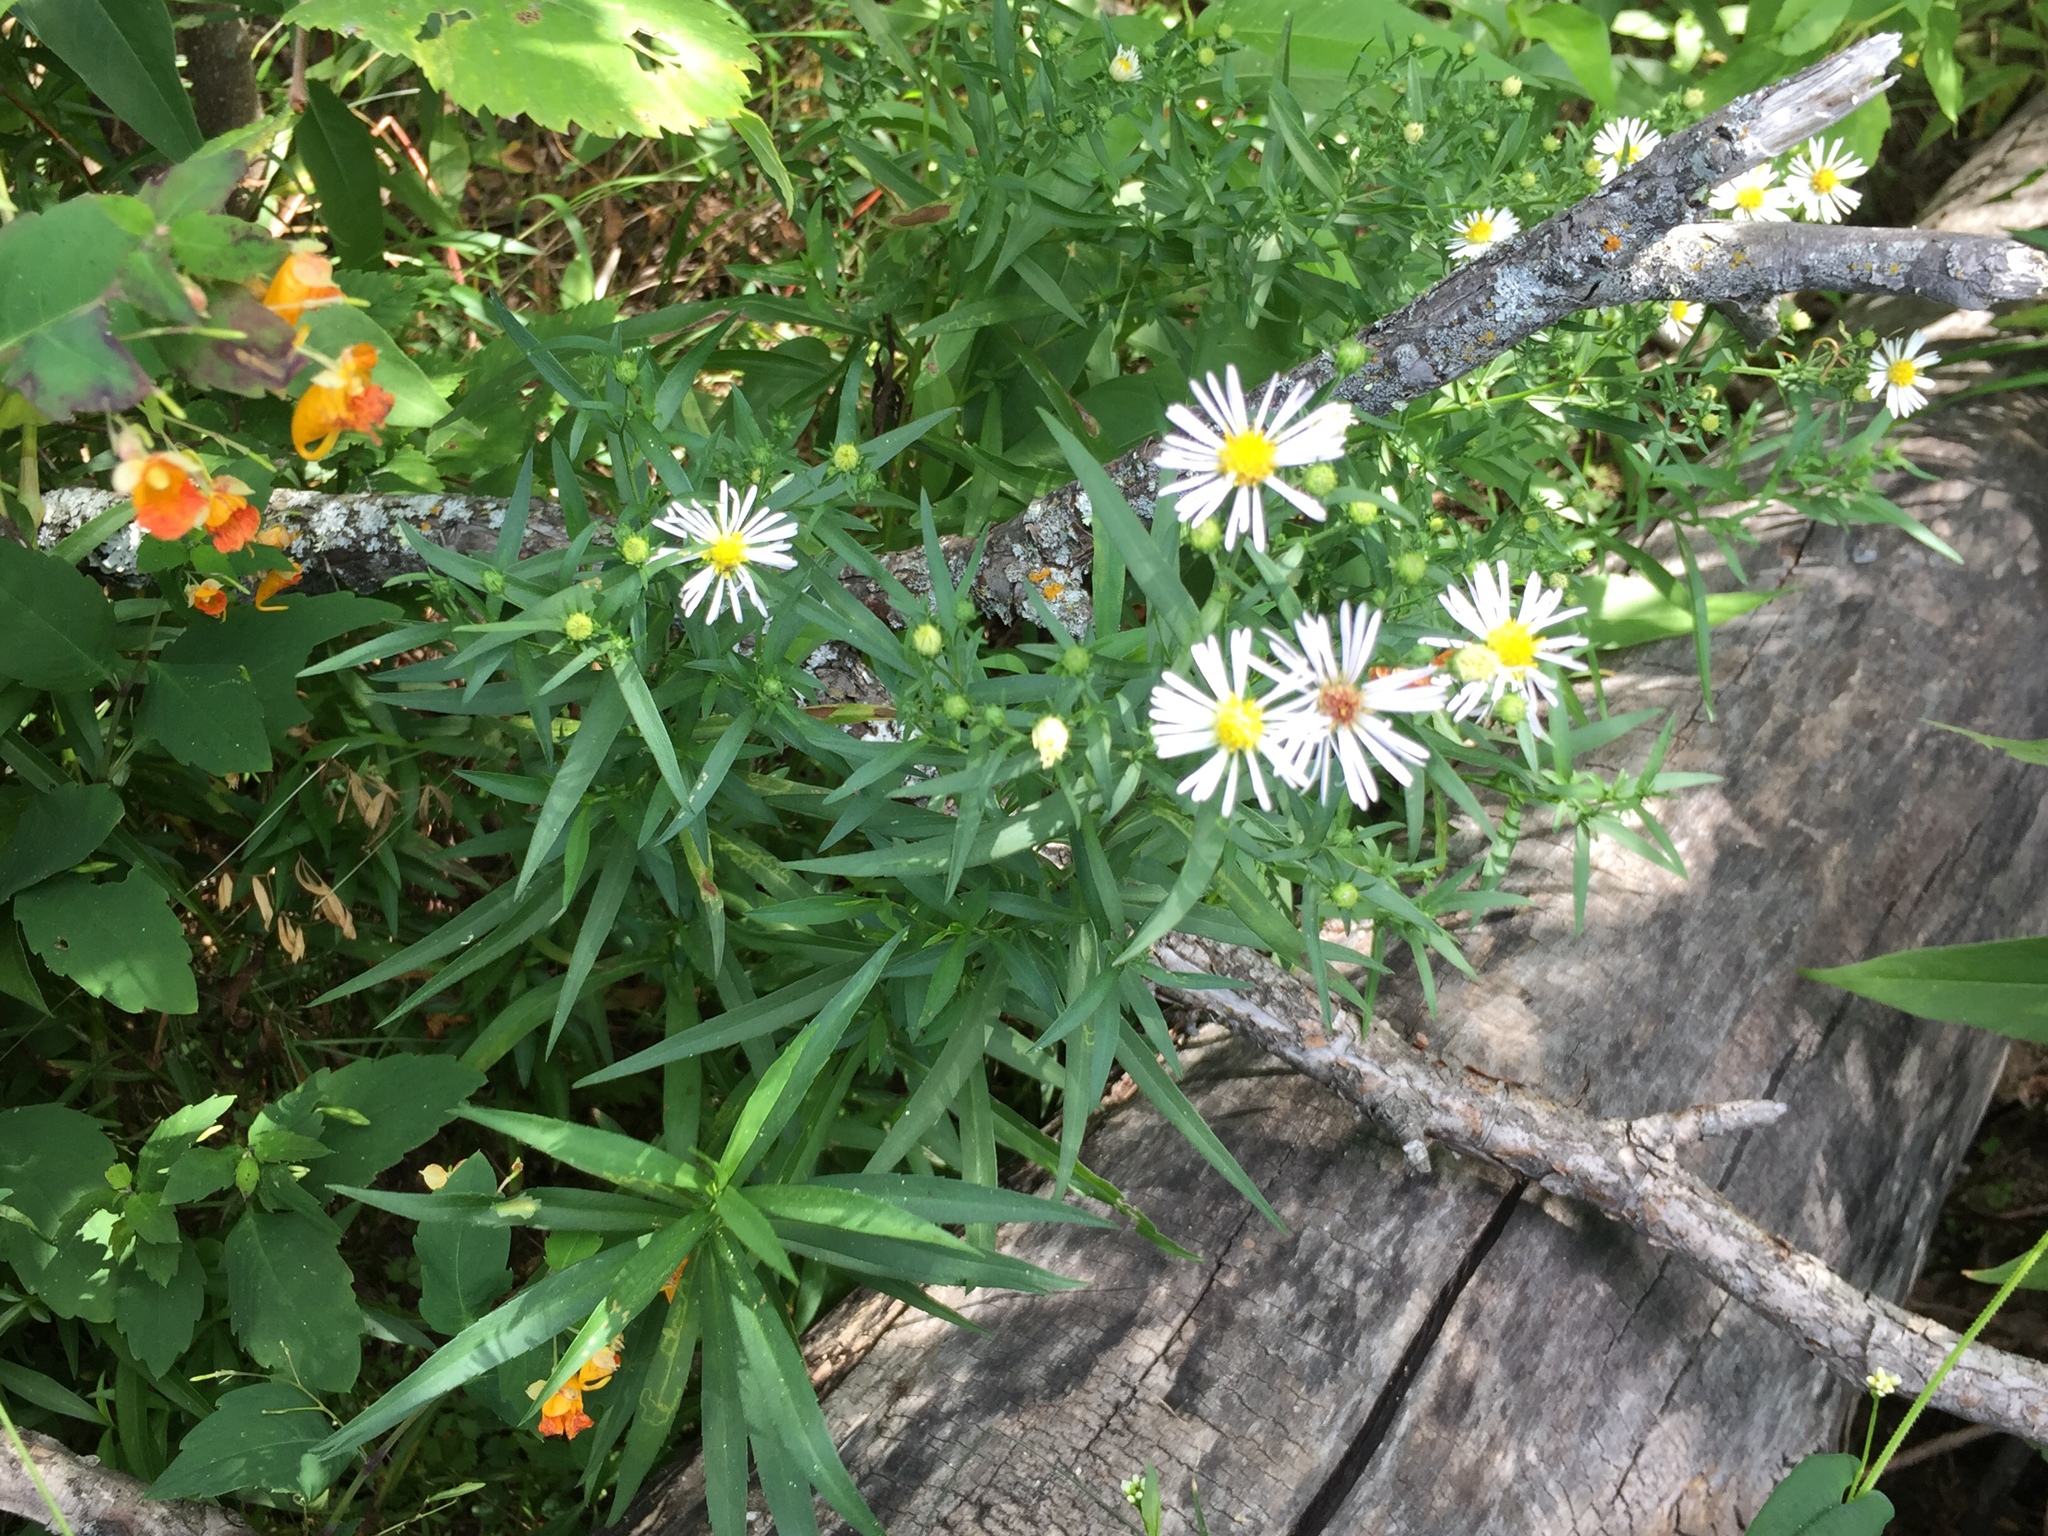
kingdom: Plantae
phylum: Tracheophyta
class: Magnoliopsida
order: Asterales
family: Asteraceae
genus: Symphyotrichum
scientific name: Symphyotrichum lanceolatum
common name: Panicled aster
